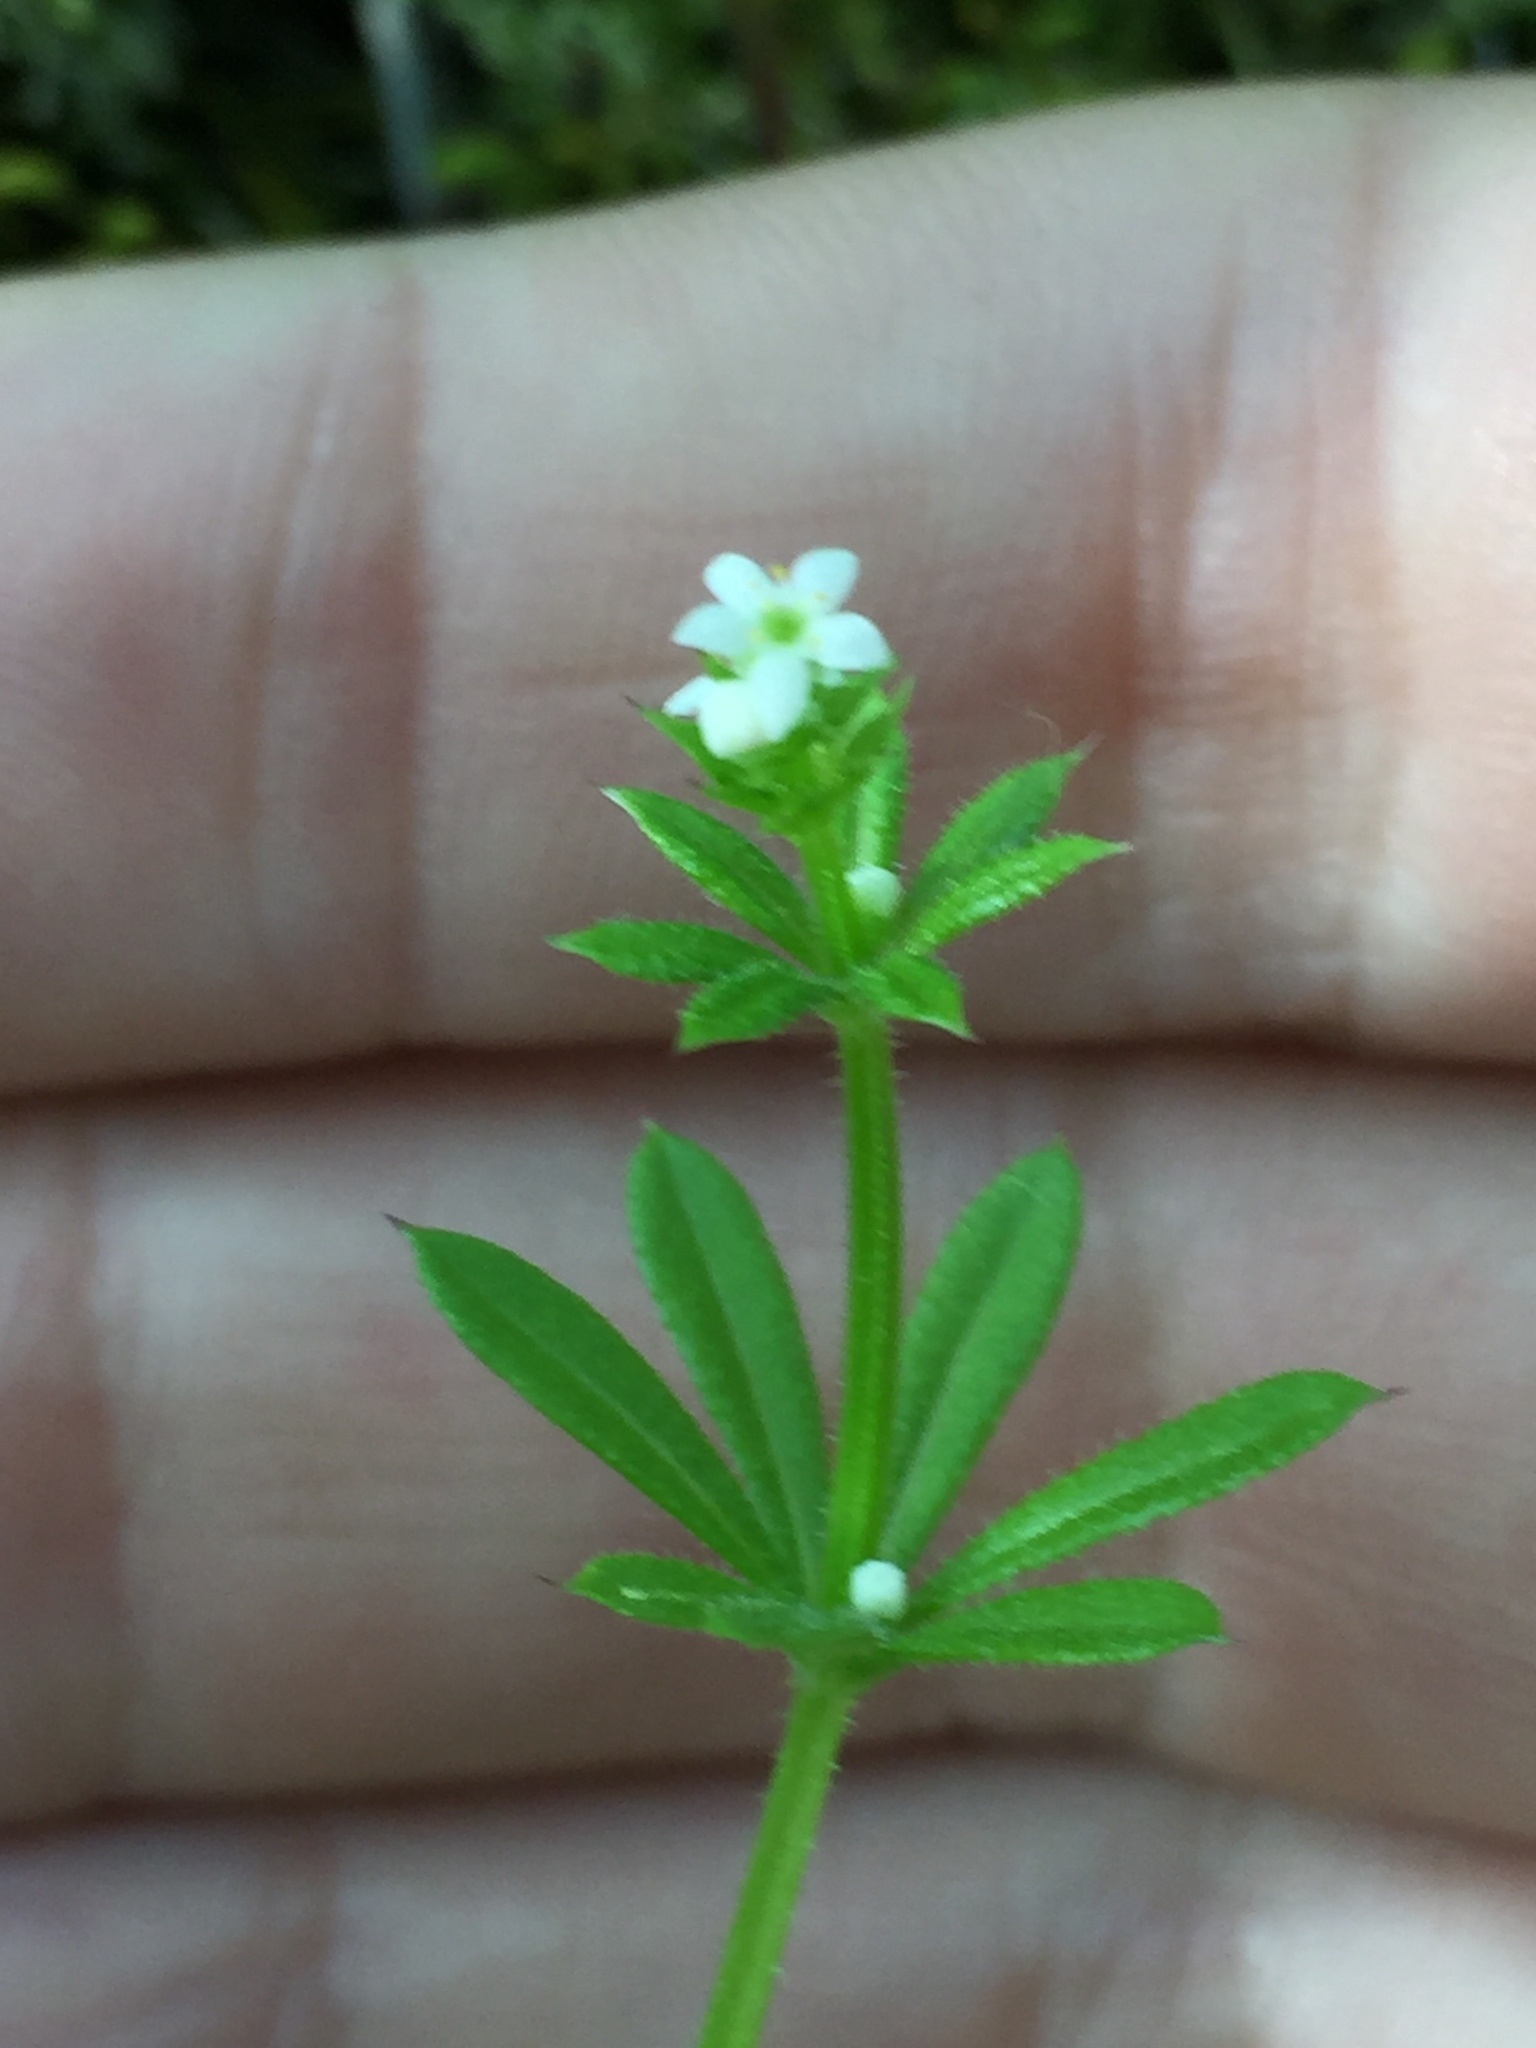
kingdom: Plantae
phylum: Tracheophyta
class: Magnoliopsida
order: Gentianales
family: Rubiaceae
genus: Galium
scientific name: Galium aparine
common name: Cleavers
